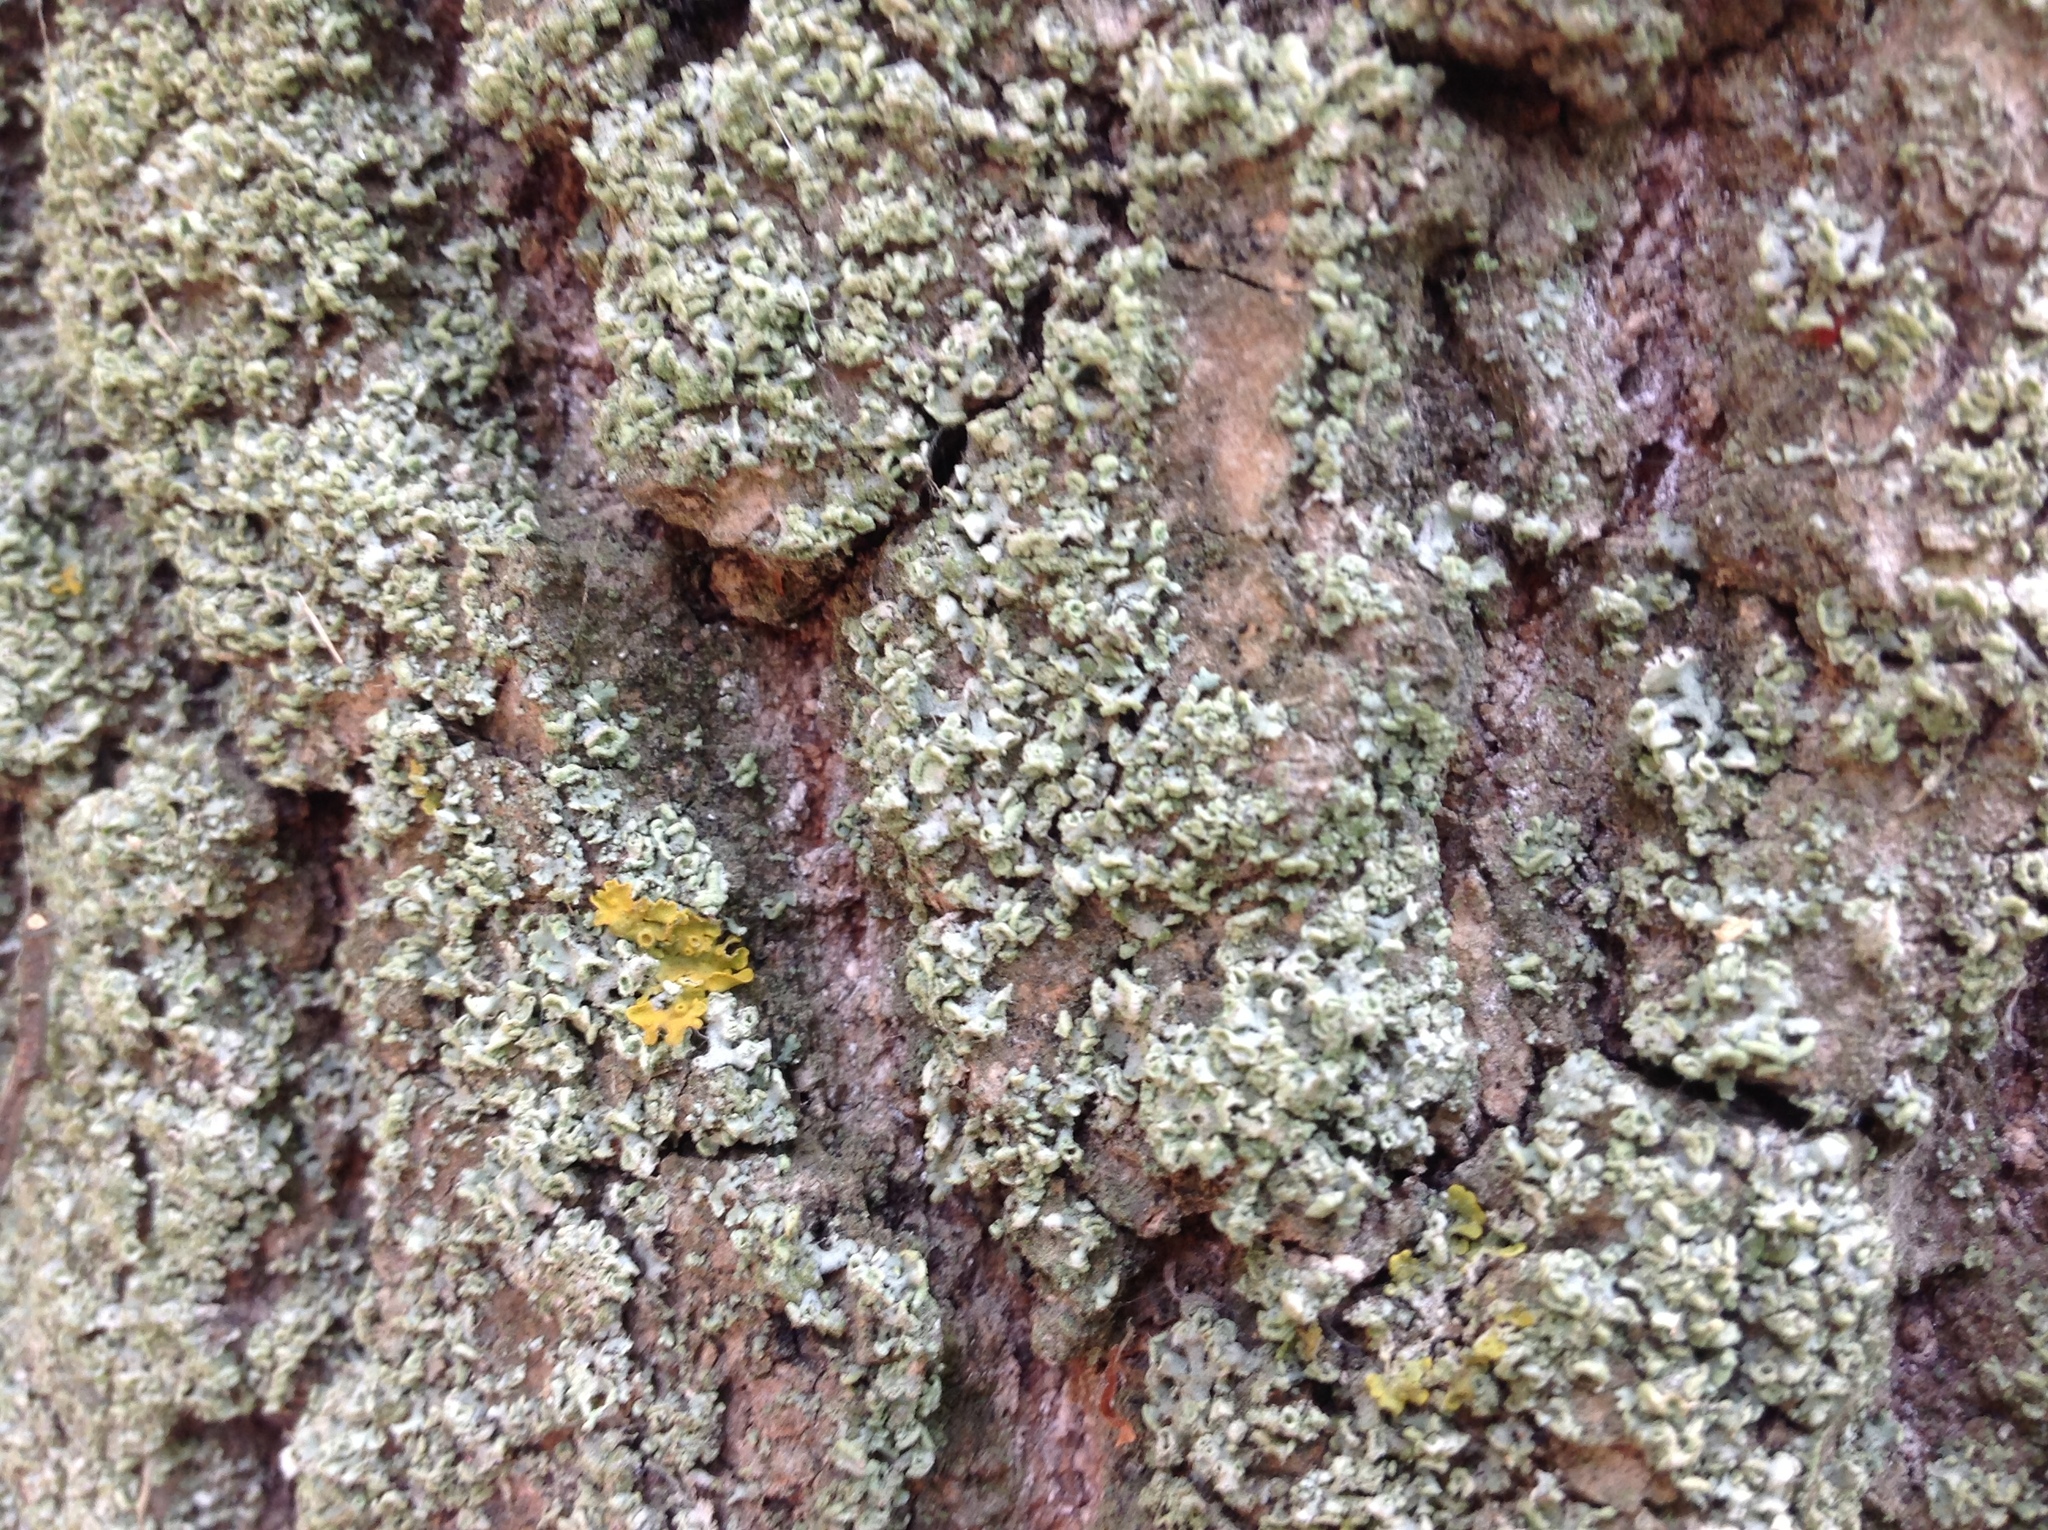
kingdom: Fungi
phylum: Ascomycota
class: Lecanoromycetes
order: Caliciales
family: Physciaceae
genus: Physcia
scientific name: Physcia adscendens
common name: Hooded rosette lichen
